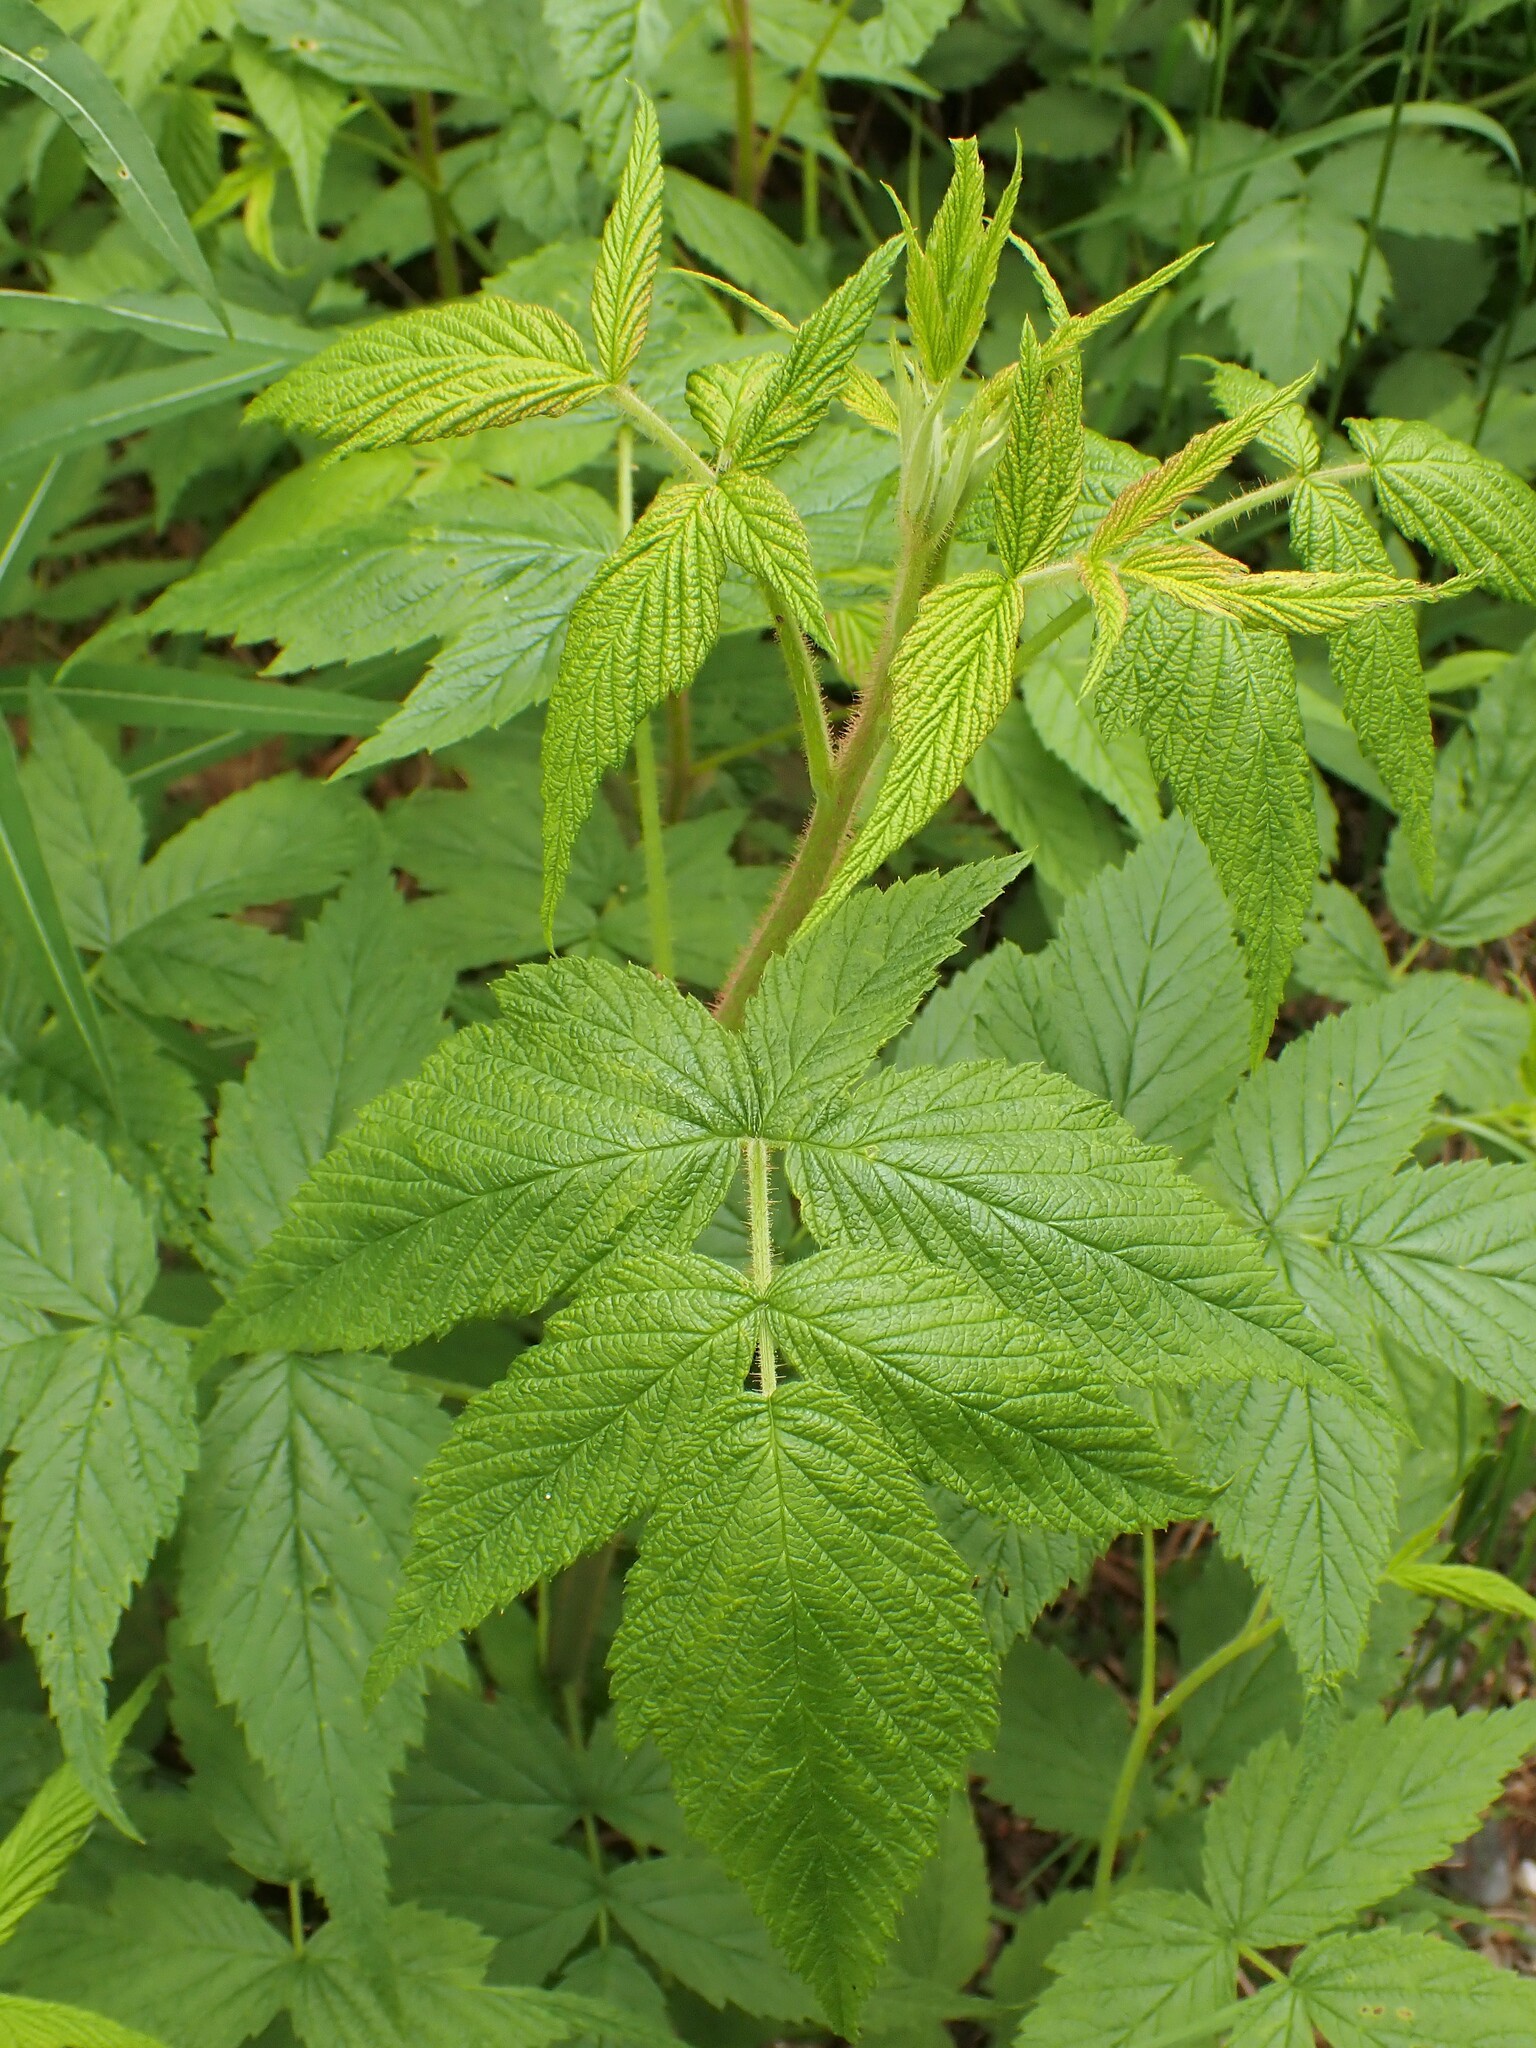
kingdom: Plantae
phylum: Tracheophyta
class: Magnoliopsida
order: Rosales
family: Rosaceae
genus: Rubus
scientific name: Rubus idaeus
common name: Raspberry
